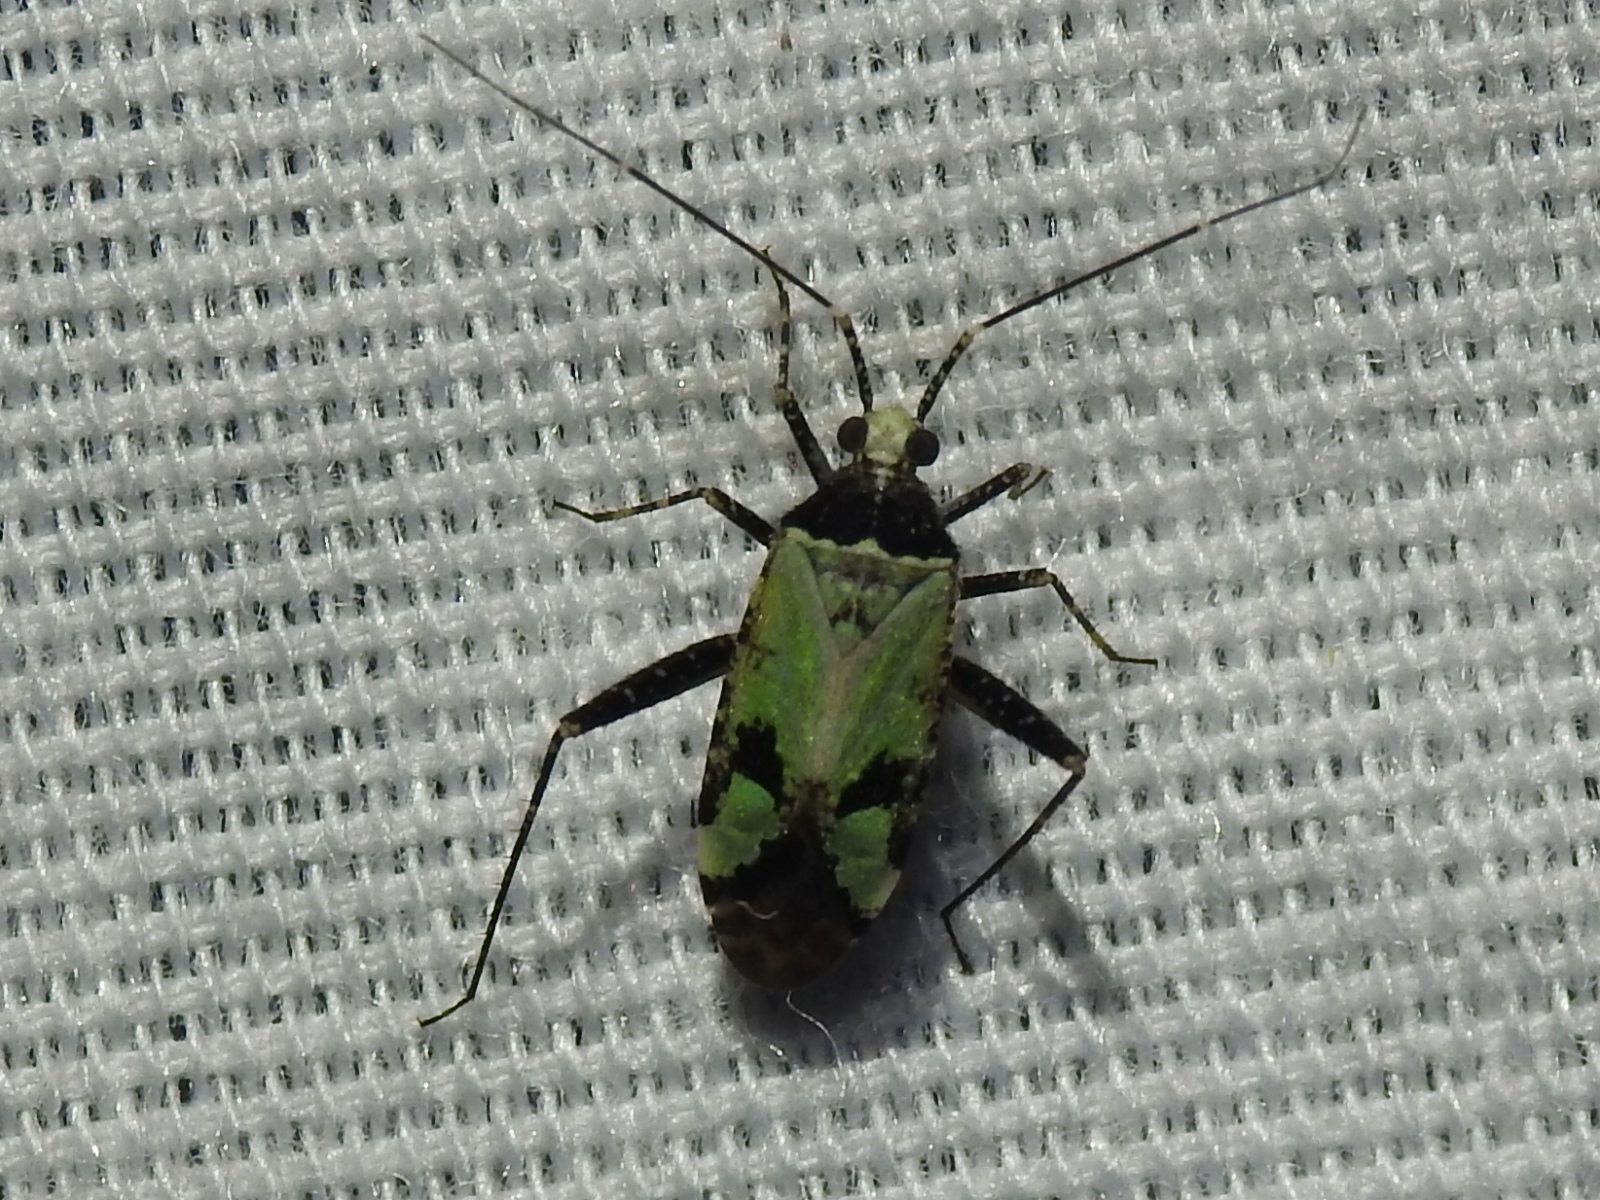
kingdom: Animalia
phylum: Arthropoda
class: Insecta
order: Hemiptera
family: Miridae
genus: Phytocoris
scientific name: Phytocoris nigricollis
